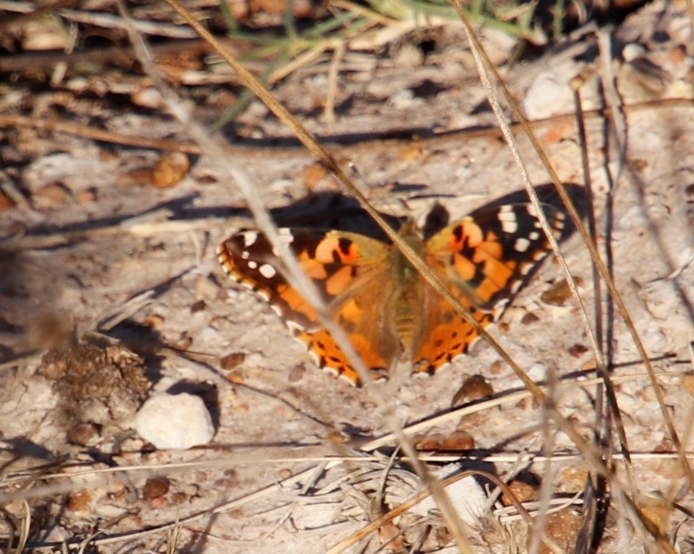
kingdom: Animalia
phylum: Arthropoda
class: Insecta
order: Lepidoptera
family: Nymphalidae
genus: Vanessa
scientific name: Vanessa cardui
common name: Painted lady
